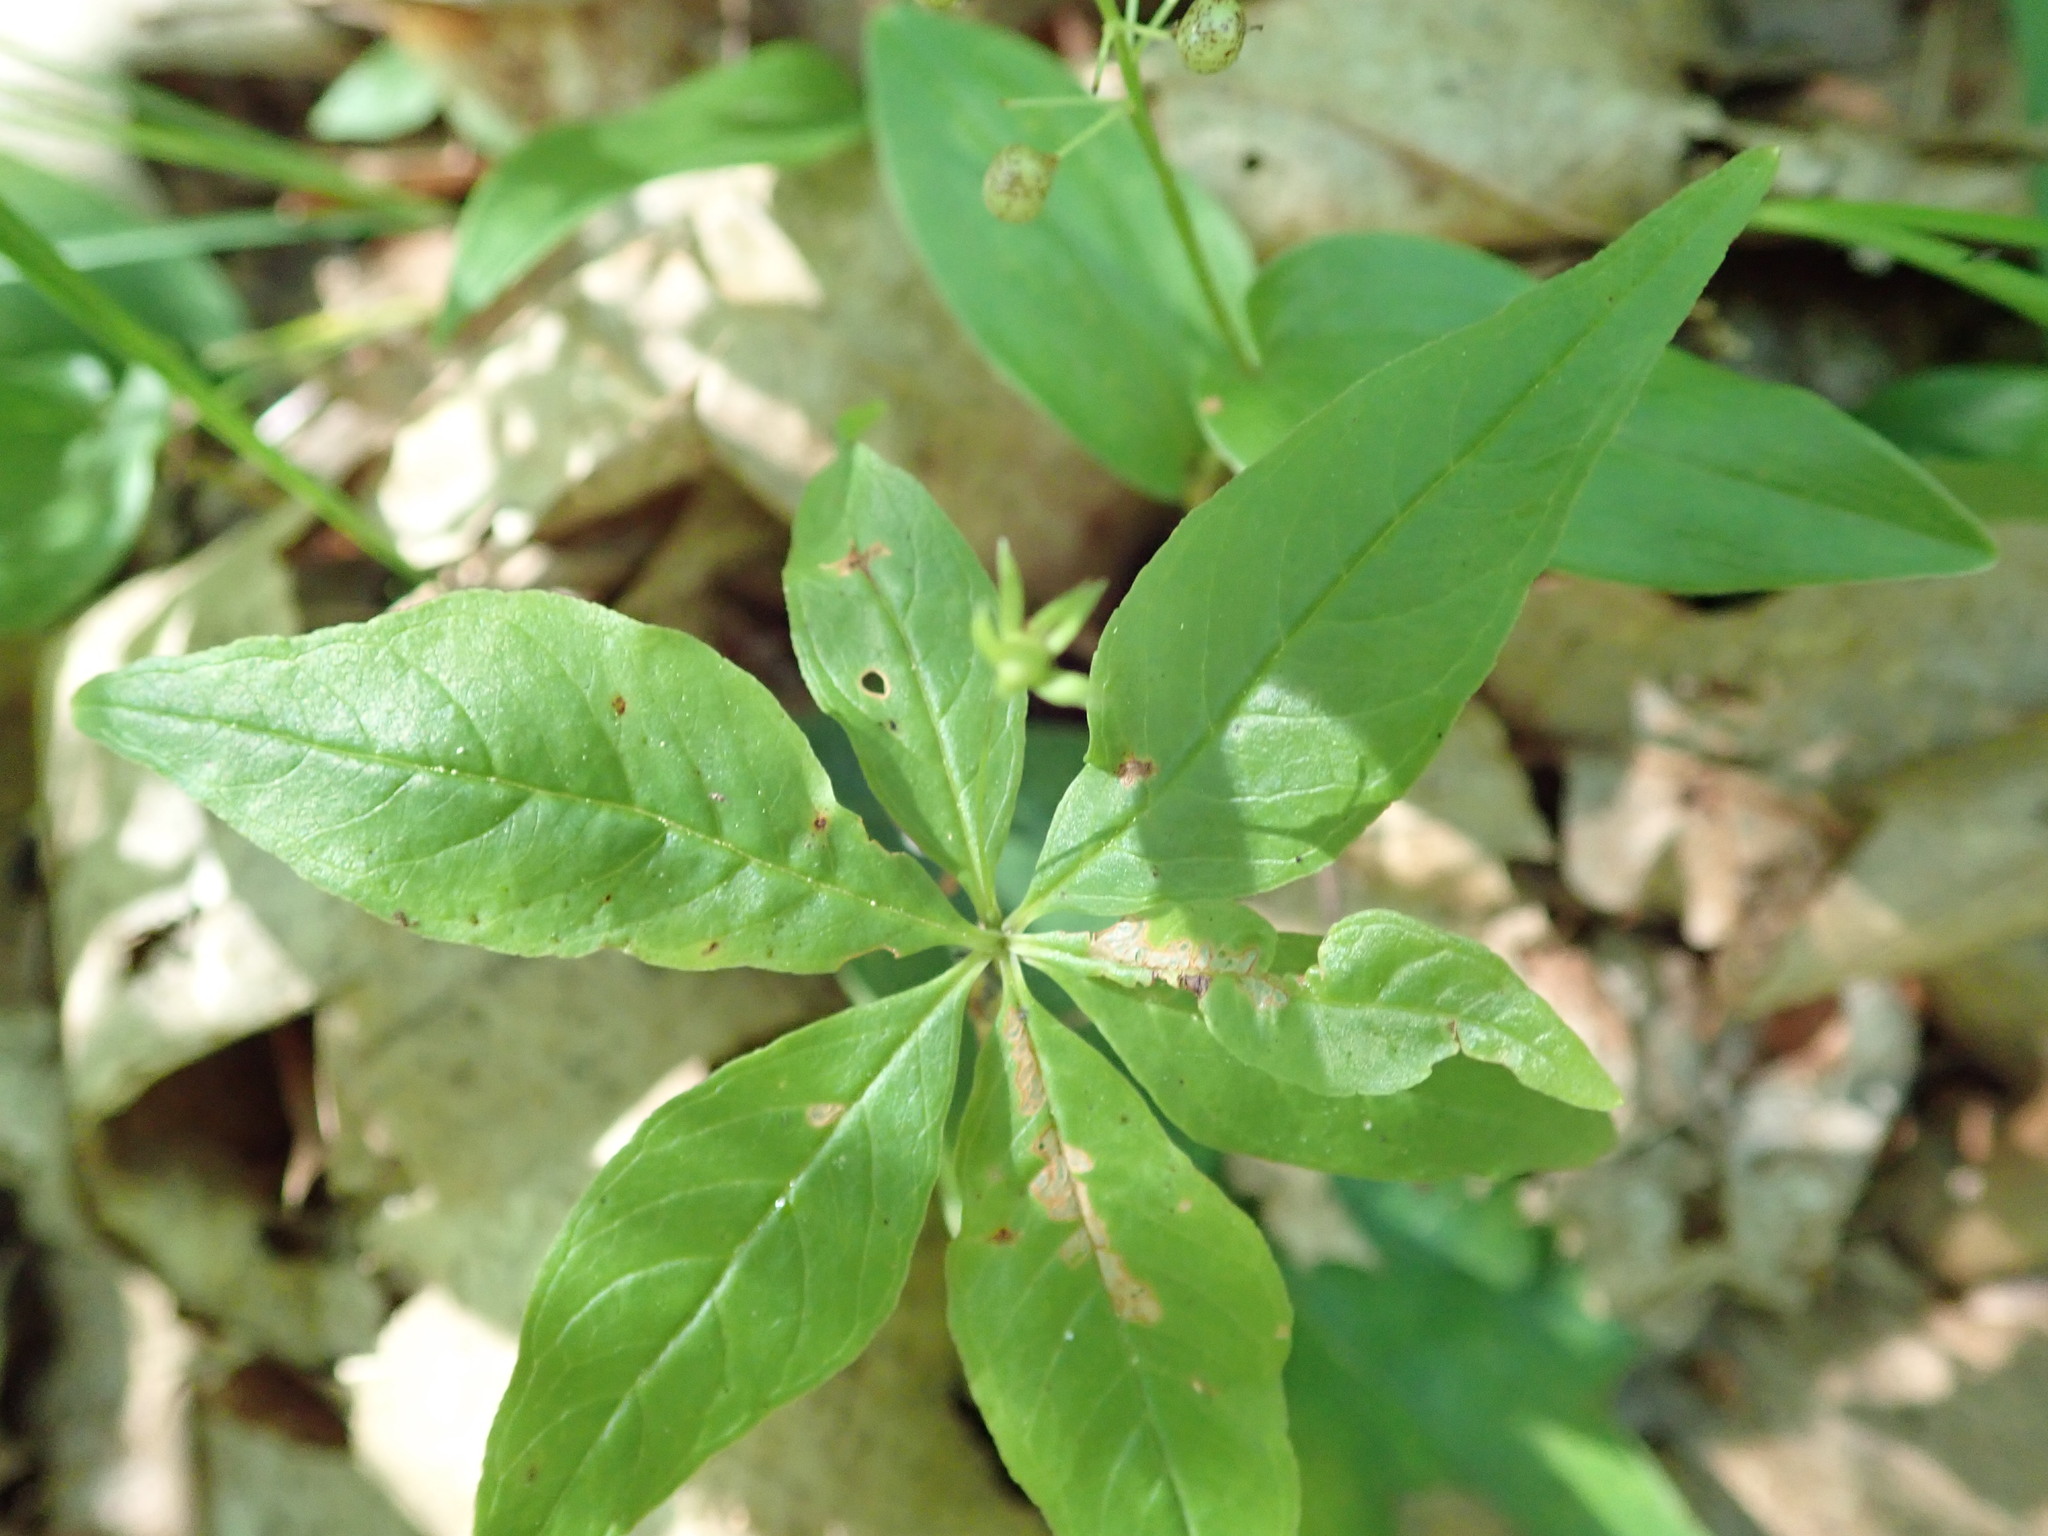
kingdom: Plantae
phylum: Tracheophyta
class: Magnoliopsida
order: Ericales
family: Primulaceae
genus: Lysimachia
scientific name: Lysimachia borealis
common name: American starflower
